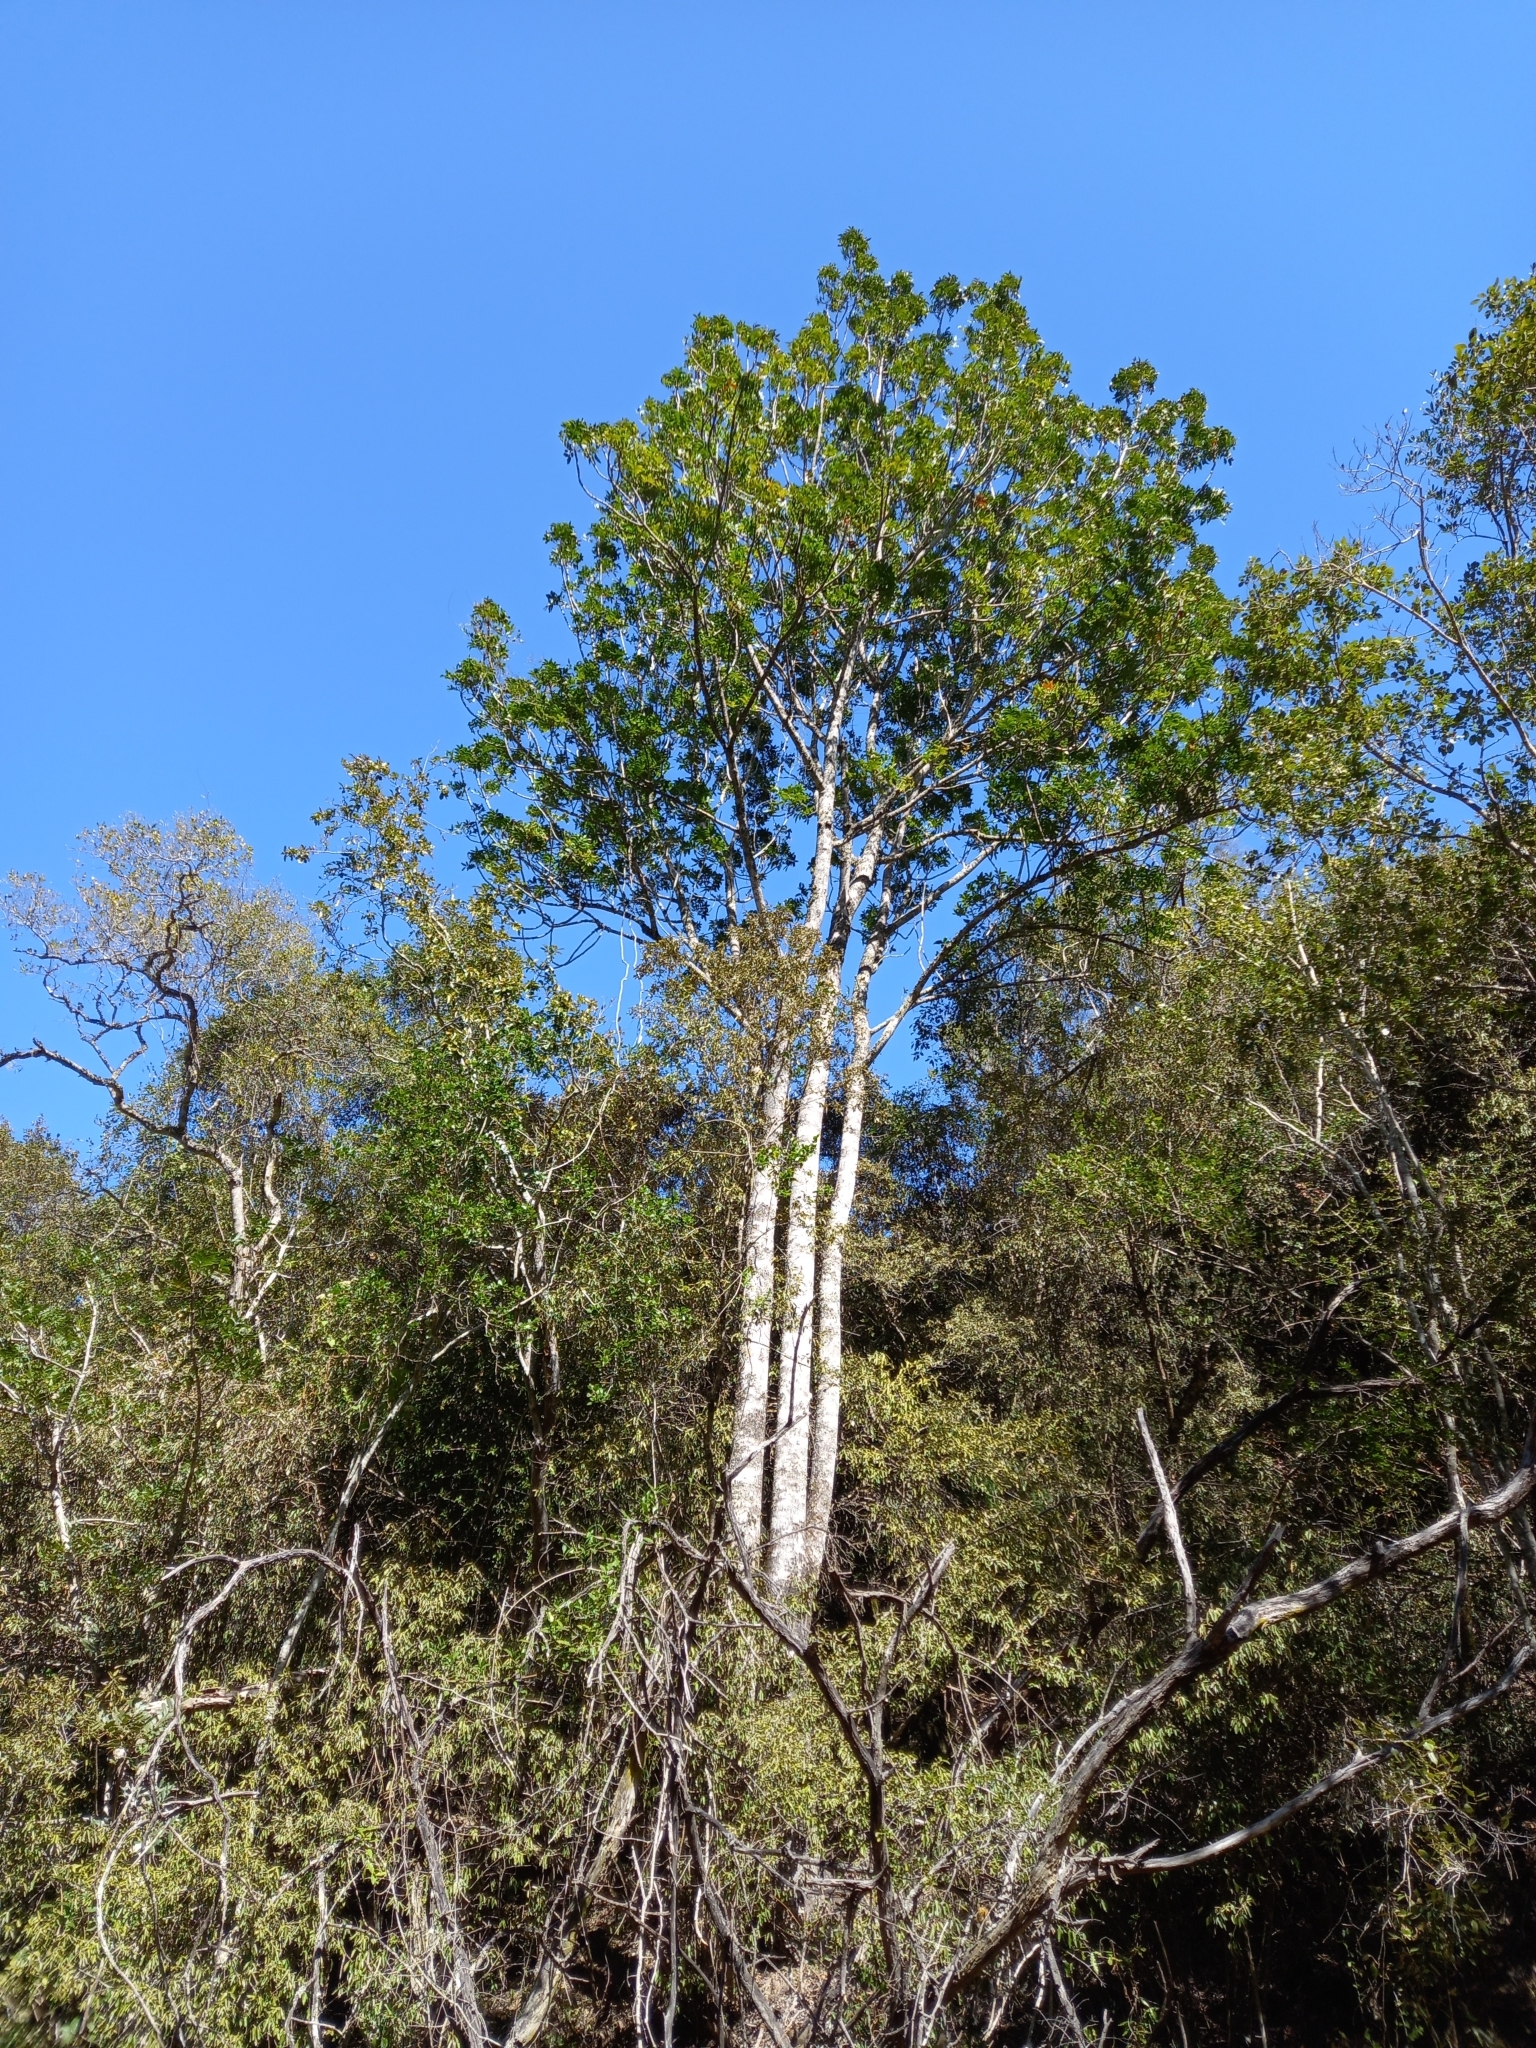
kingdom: Plantae
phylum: Tracheophyta
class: Magnoliopsida
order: Sapindales
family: Anacardiaceae
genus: Harpephyllum
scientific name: Harpephyllum caffrum
